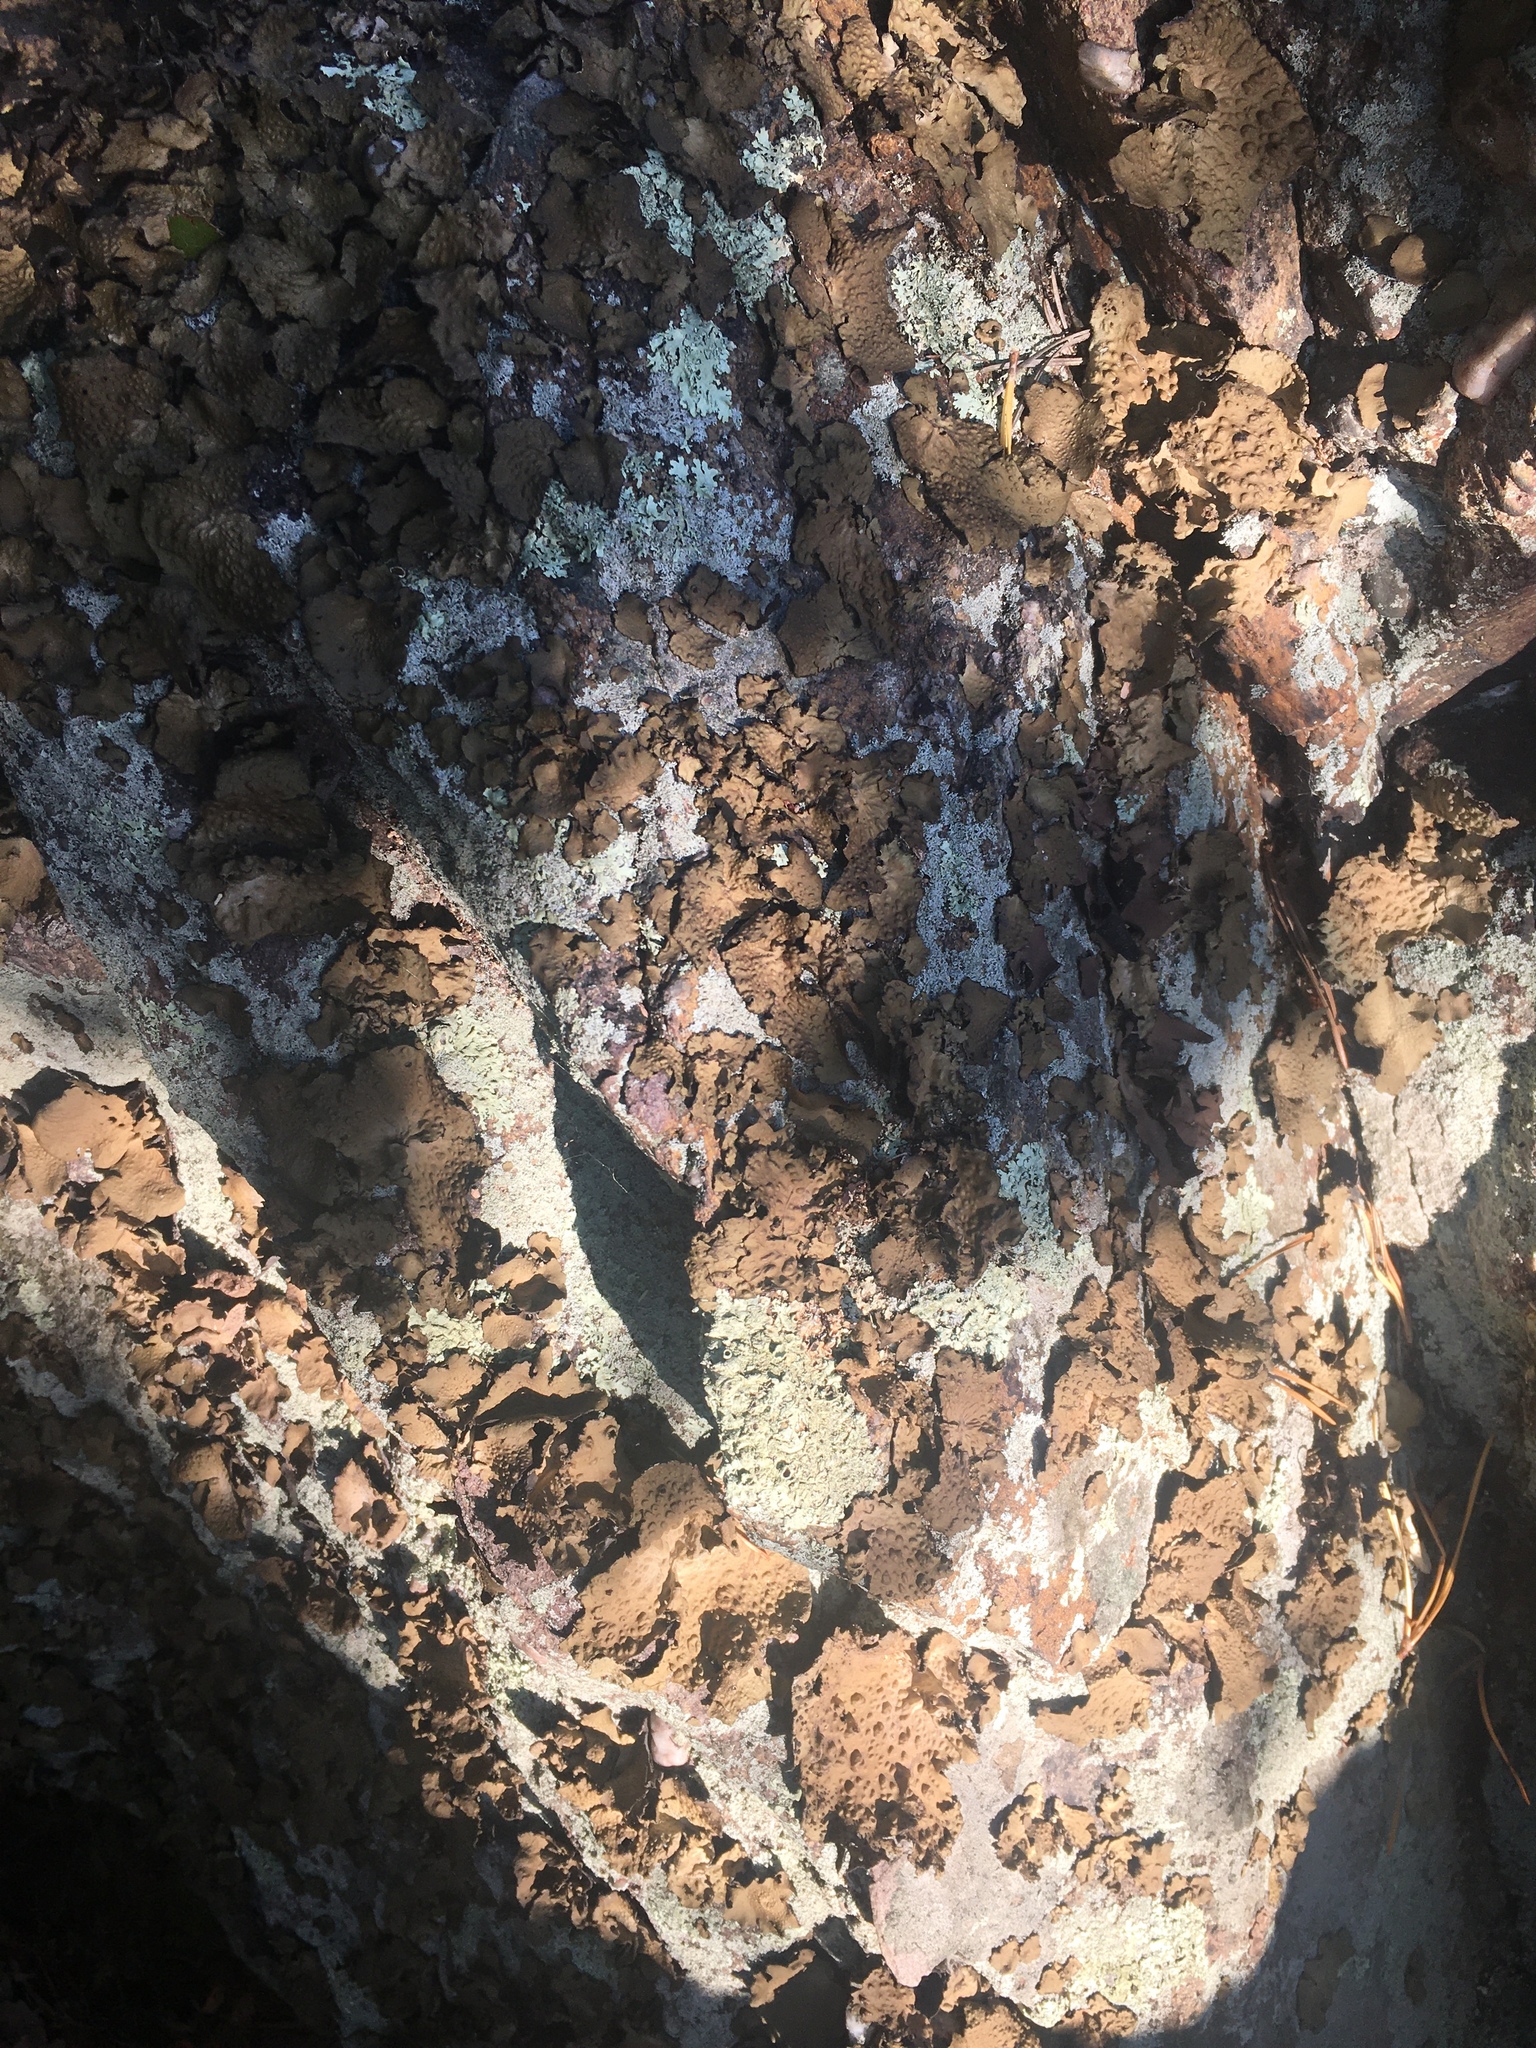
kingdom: Fungi
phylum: Ascomycota
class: Lecanoromycetes
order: Umbilicariales
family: Umbilicariaceae
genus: Lasallia
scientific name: Lasallia pensylvanica
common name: Blackened toadskin lichen
